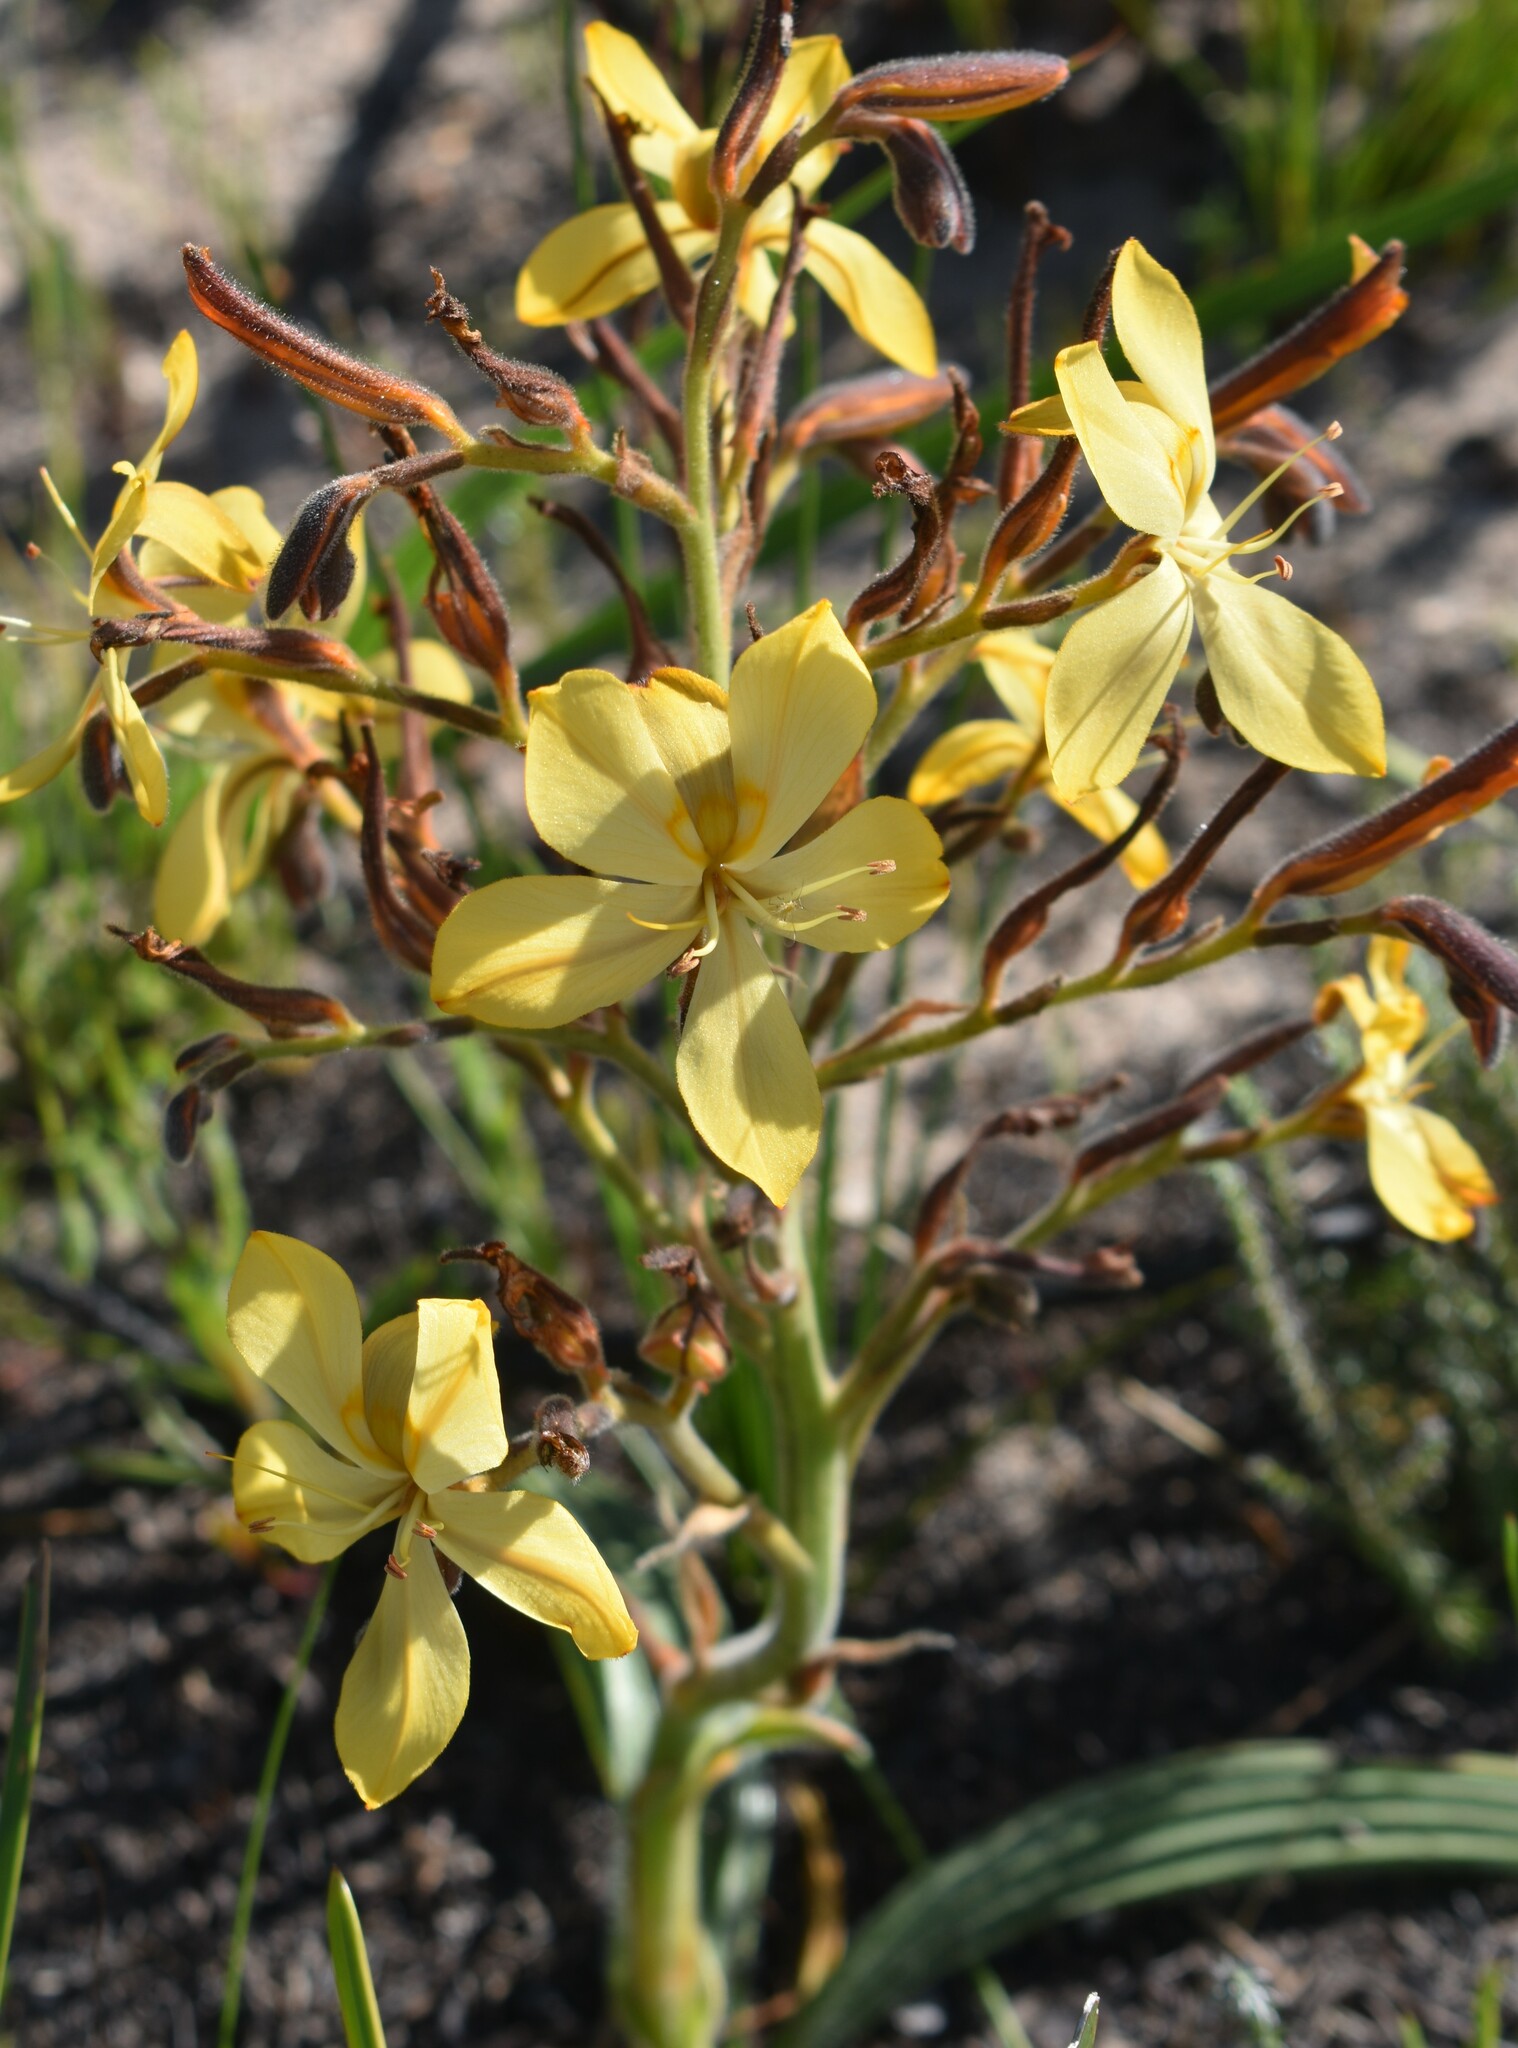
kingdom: Plantae
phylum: Tracheophyta
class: Liliopsida
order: Commelinales
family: Haemodoraceae
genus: Wachendorfia
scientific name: Wachendorfia paniculata
